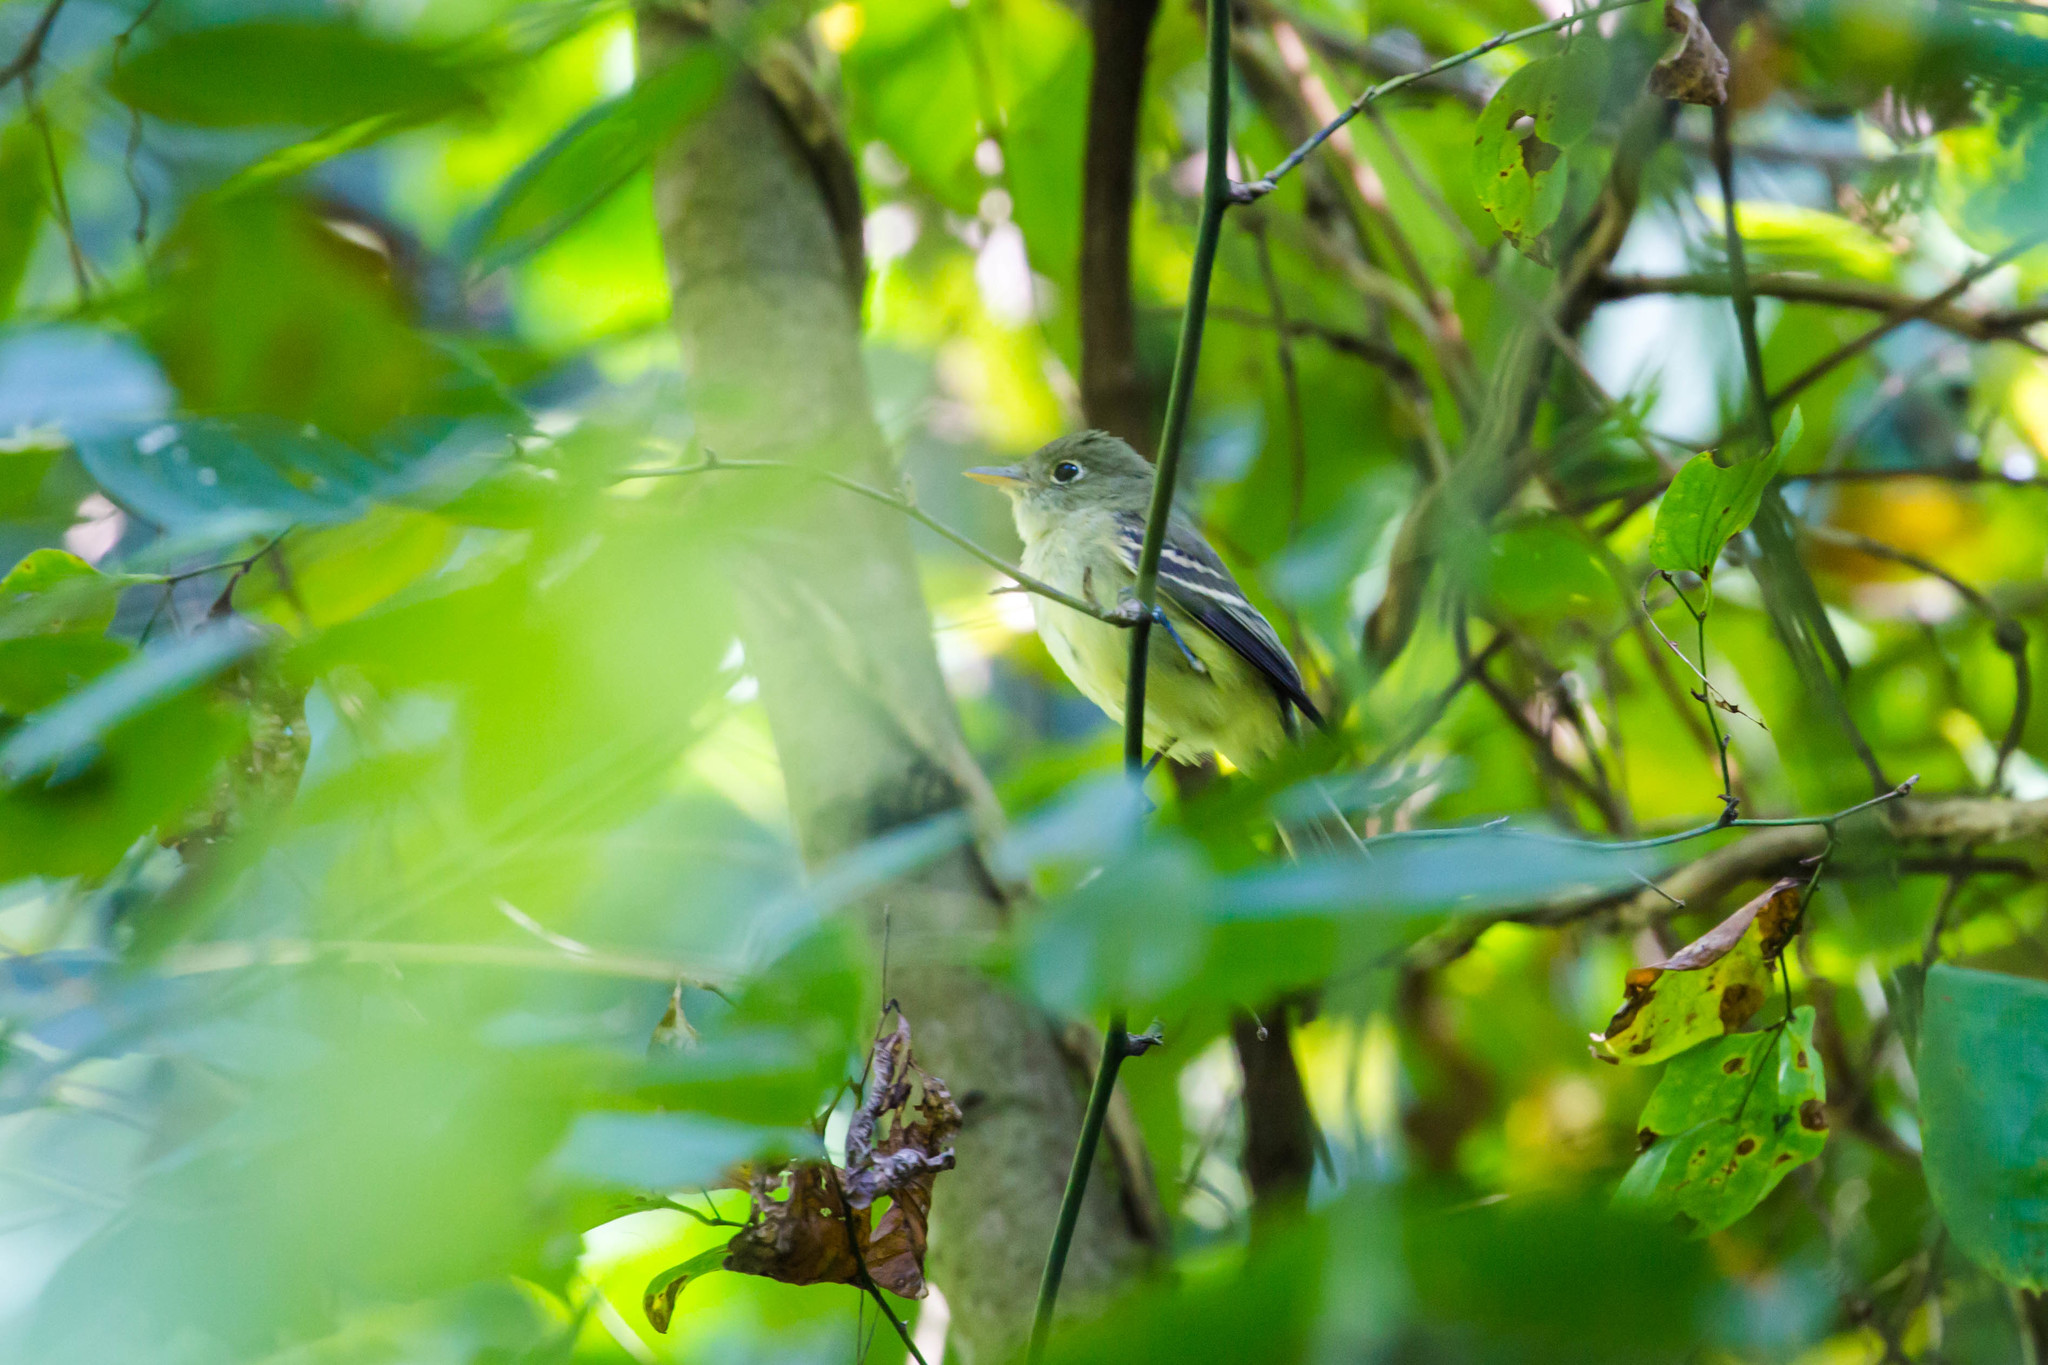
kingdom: Animalia
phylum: Chordata
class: Aves
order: Passeriformes
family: Tyrannidae
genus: Empidonax
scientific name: Empidonax virescens
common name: Acadian flycatcher
